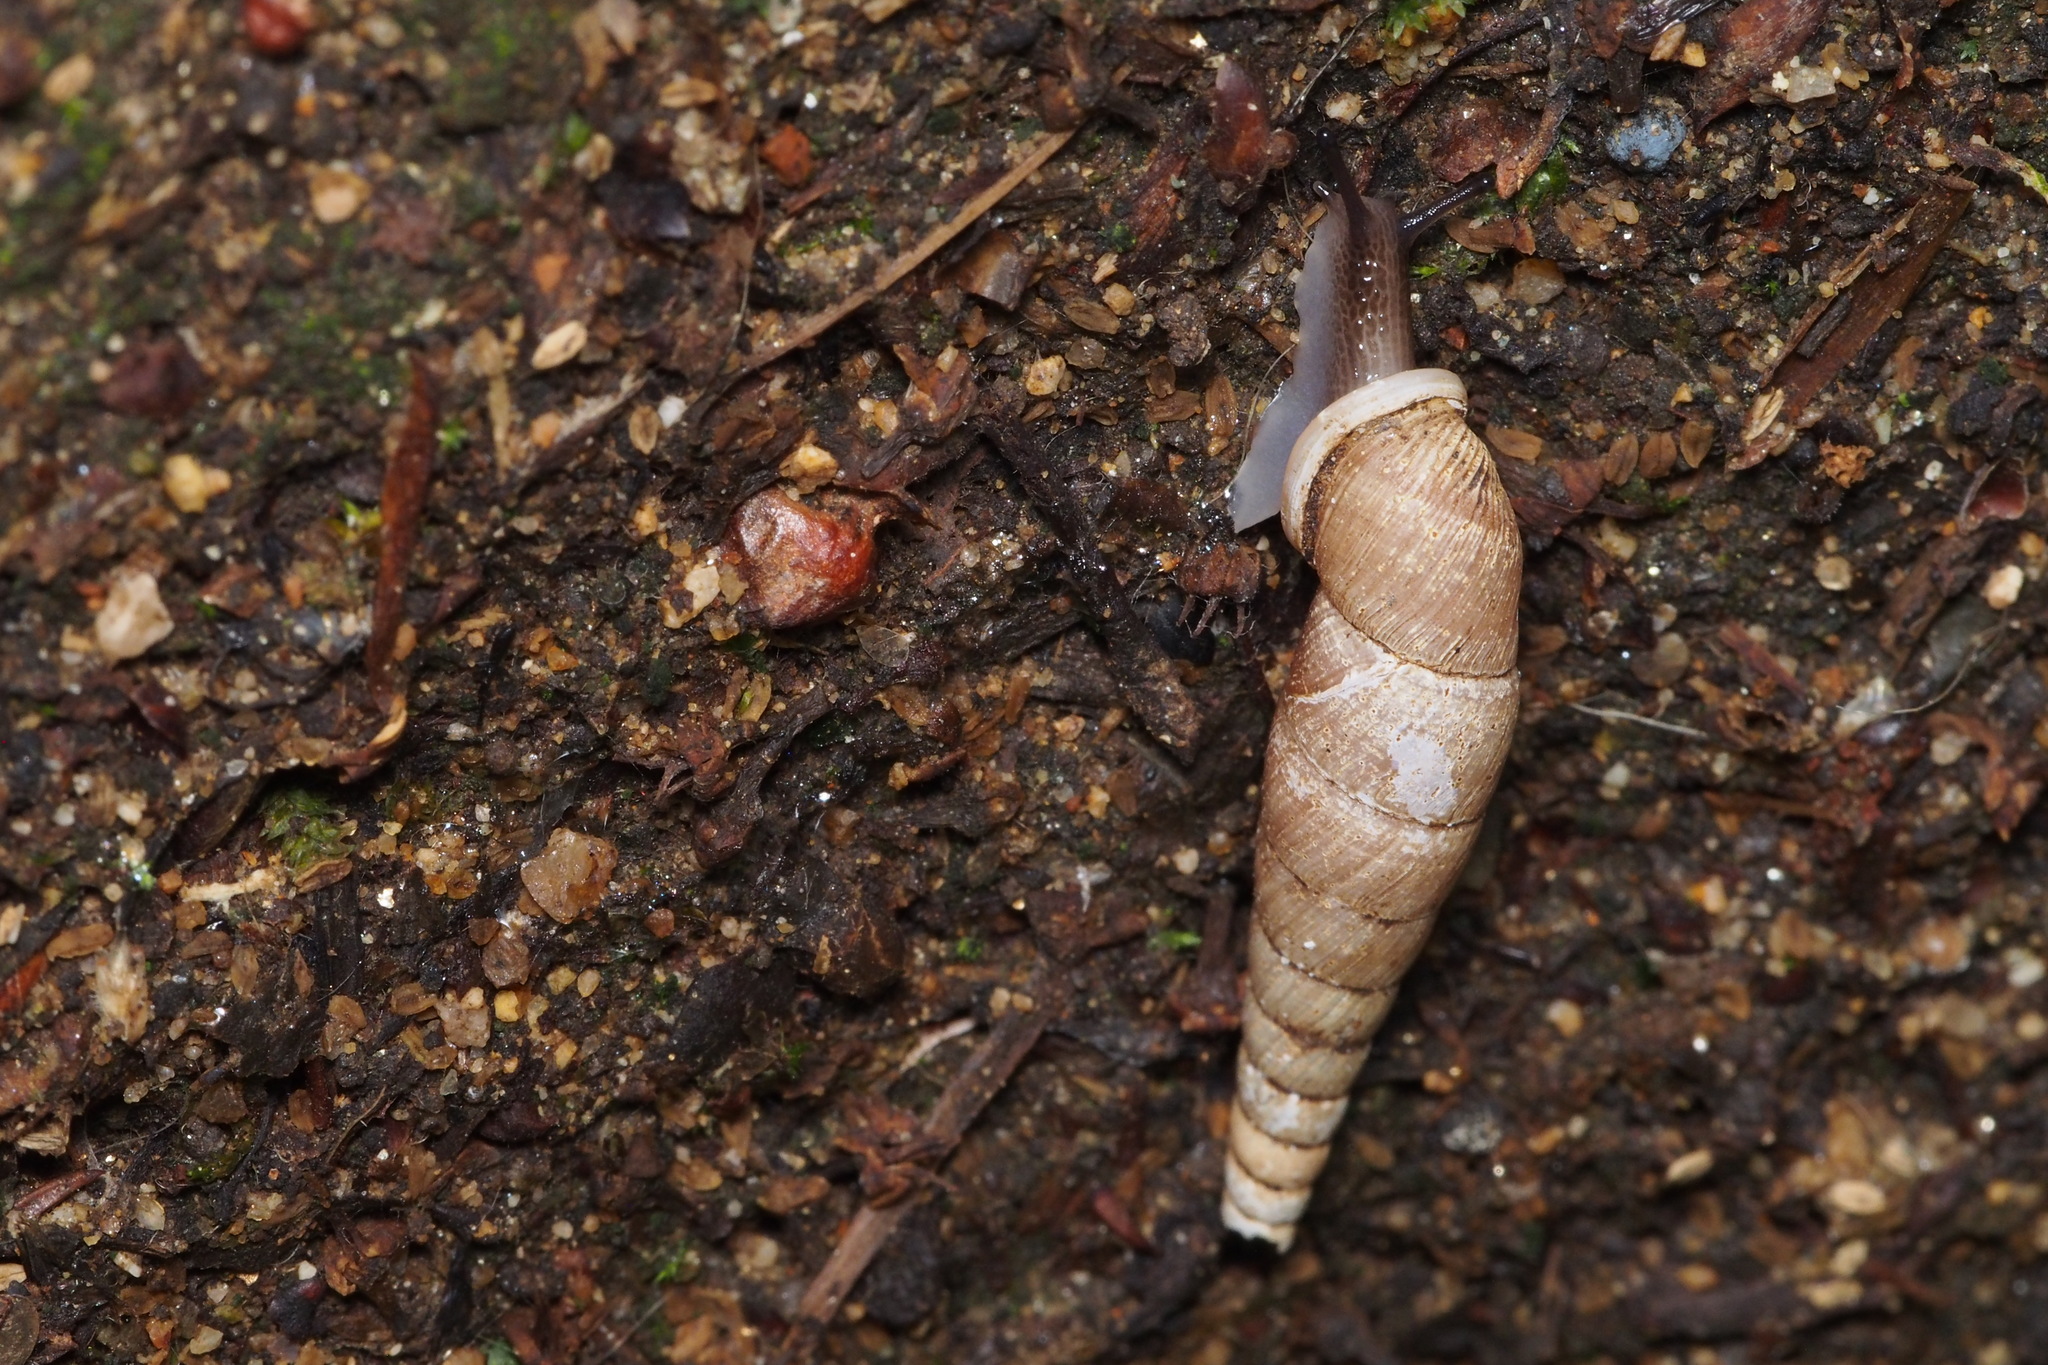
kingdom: Animalia
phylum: Mollusca
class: Gastropoda
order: Stylommatophora
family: Clausiliidae
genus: Megalophaedusa
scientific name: Megalophaedusa bilabrata
